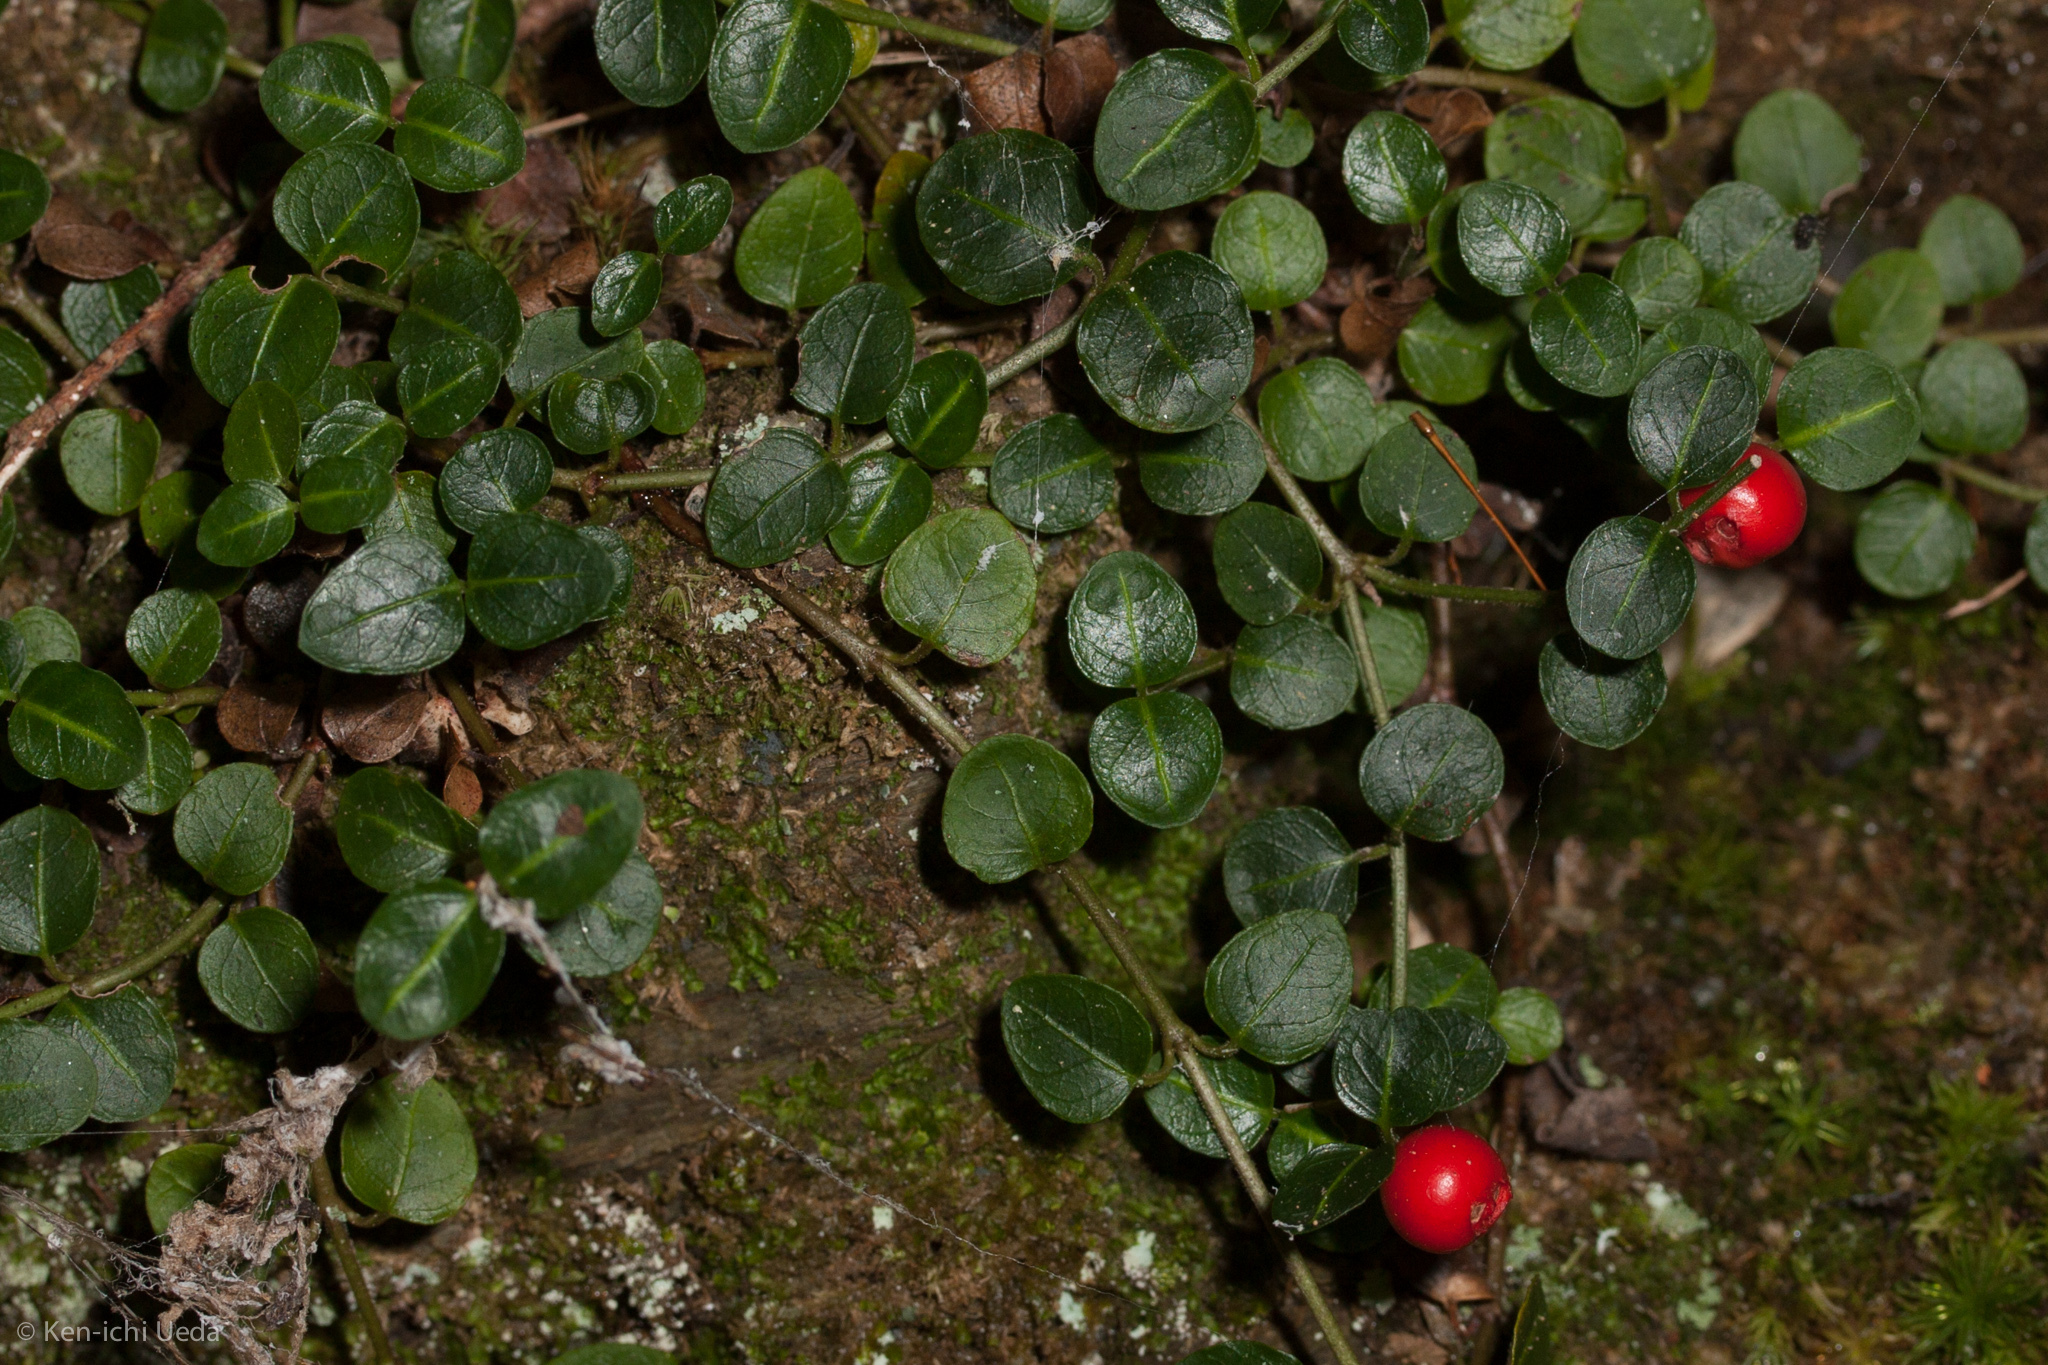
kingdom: Plantae
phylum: Tracheophyta
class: Magnoliopsida
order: Gentianales
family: Rubiaceae
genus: Mitchella
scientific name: Mitchella repens
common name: Partridge-berry
